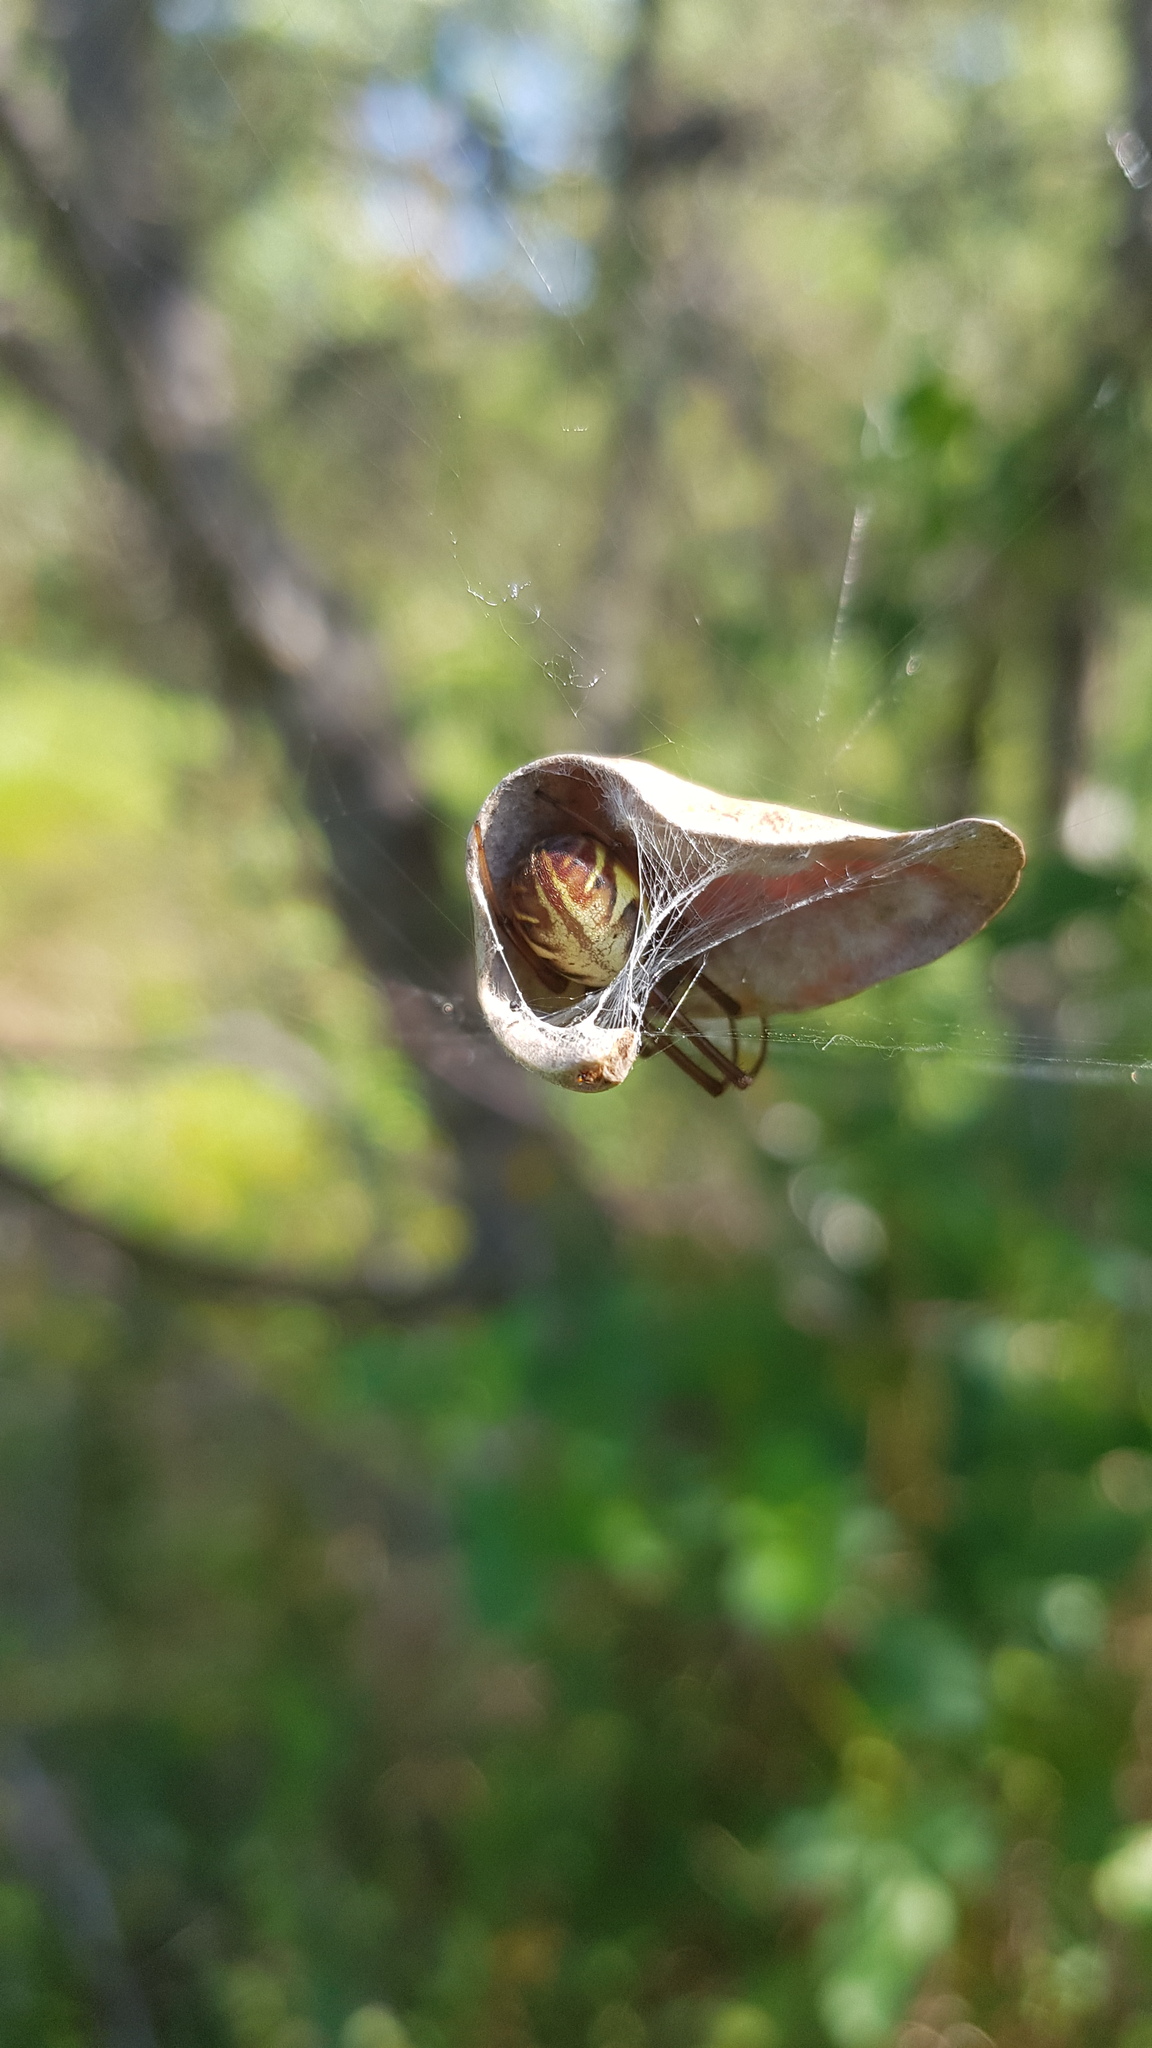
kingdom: Animalia
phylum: Arthropoda
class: Arachnida
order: Araneae
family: Araneidae
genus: Phonognatha
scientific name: Phonognatha graeffei
